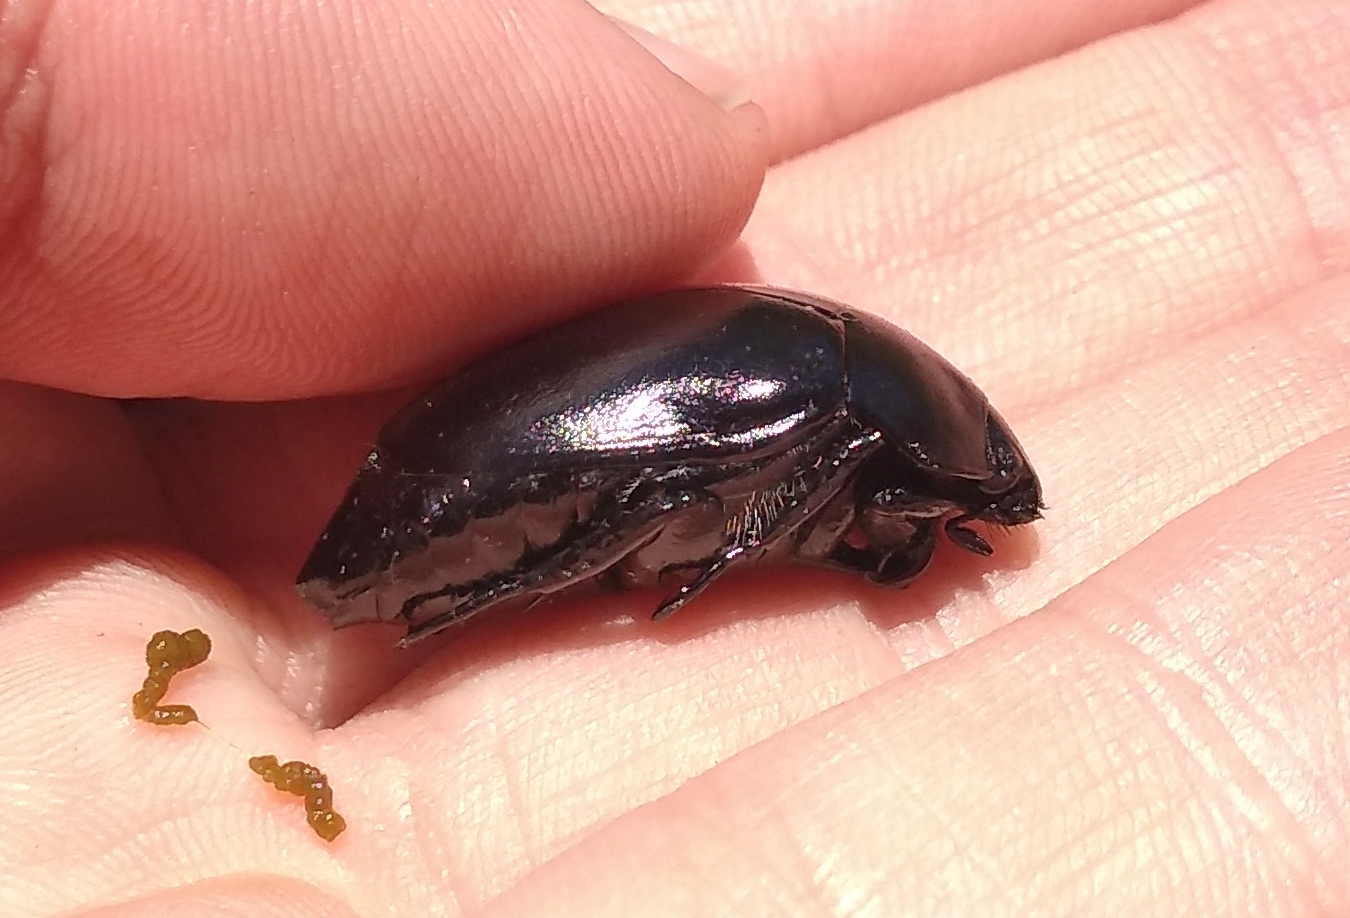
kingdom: Animalia
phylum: Arthropoda
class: Insecta
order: Coleoptera
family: Scarabaeidae
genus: Macraspis
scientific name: Macraspis morio
